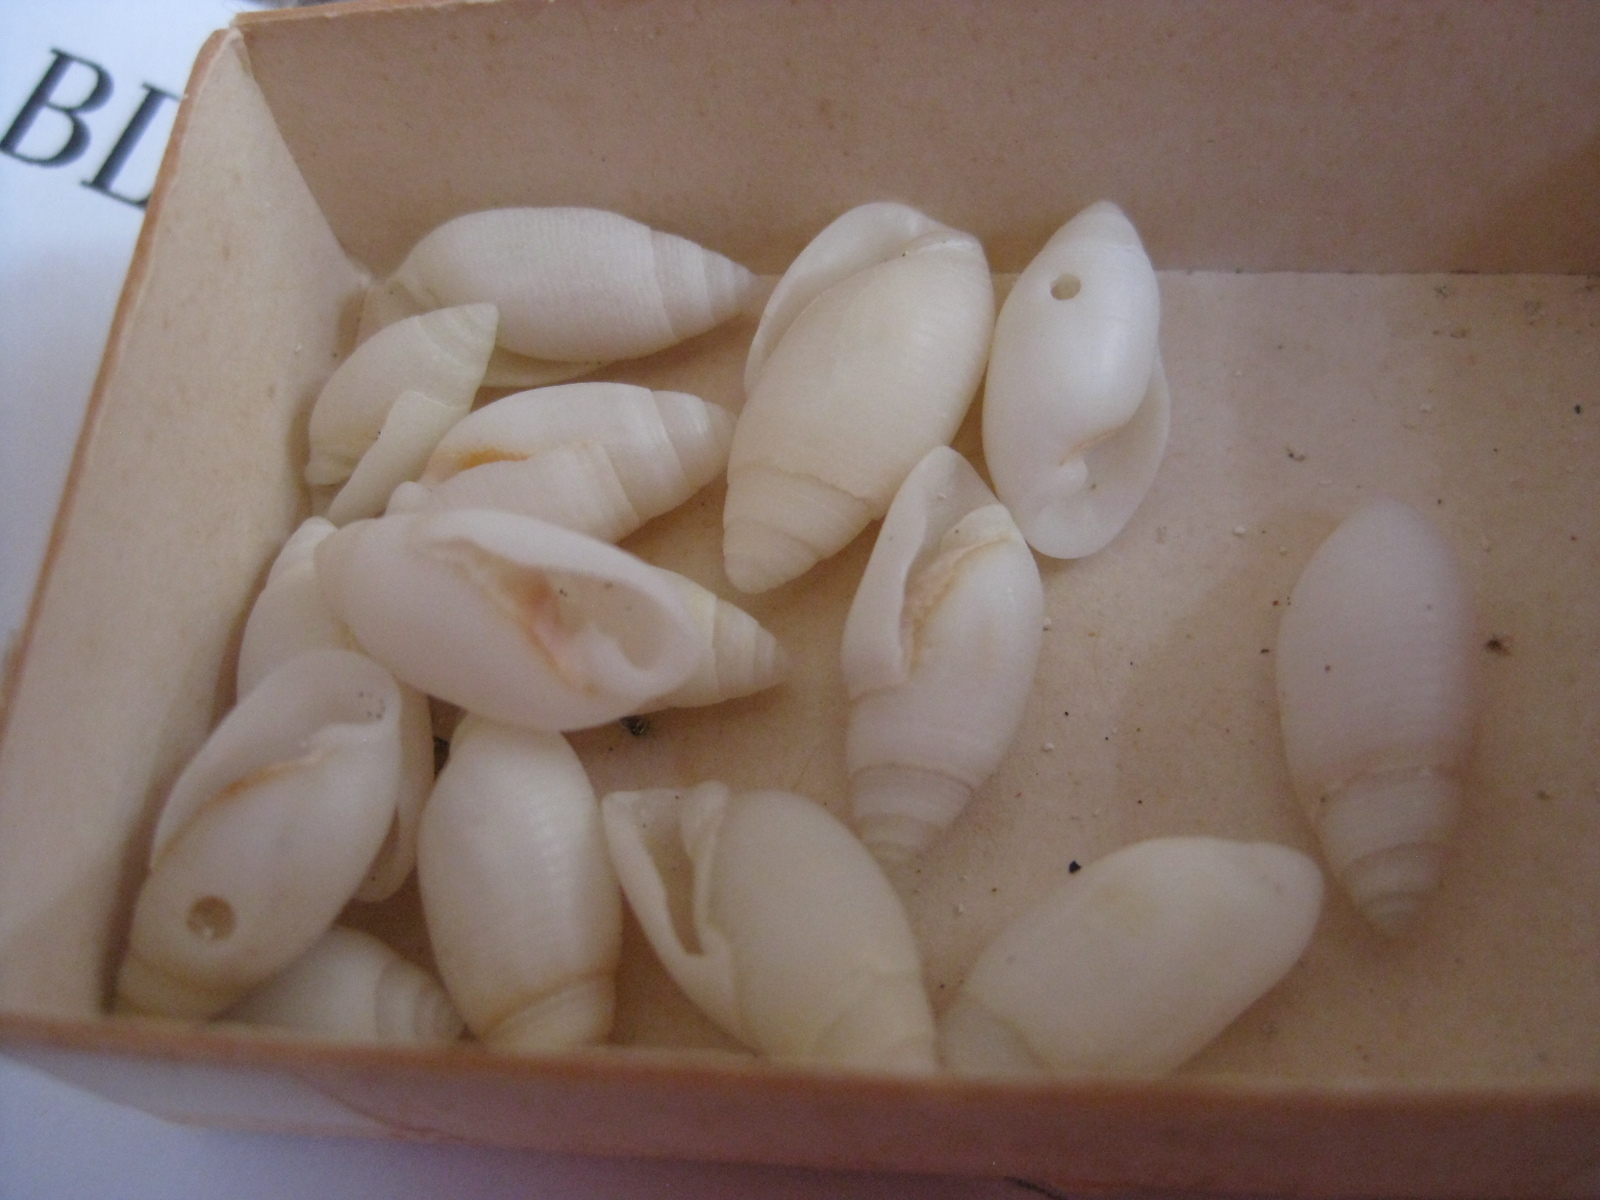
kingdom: Animalia
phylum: Mollusca
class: Gastropoda
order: Cephalaspidea
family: Acteonidae
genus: Pupa
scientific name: Pupa affinis
